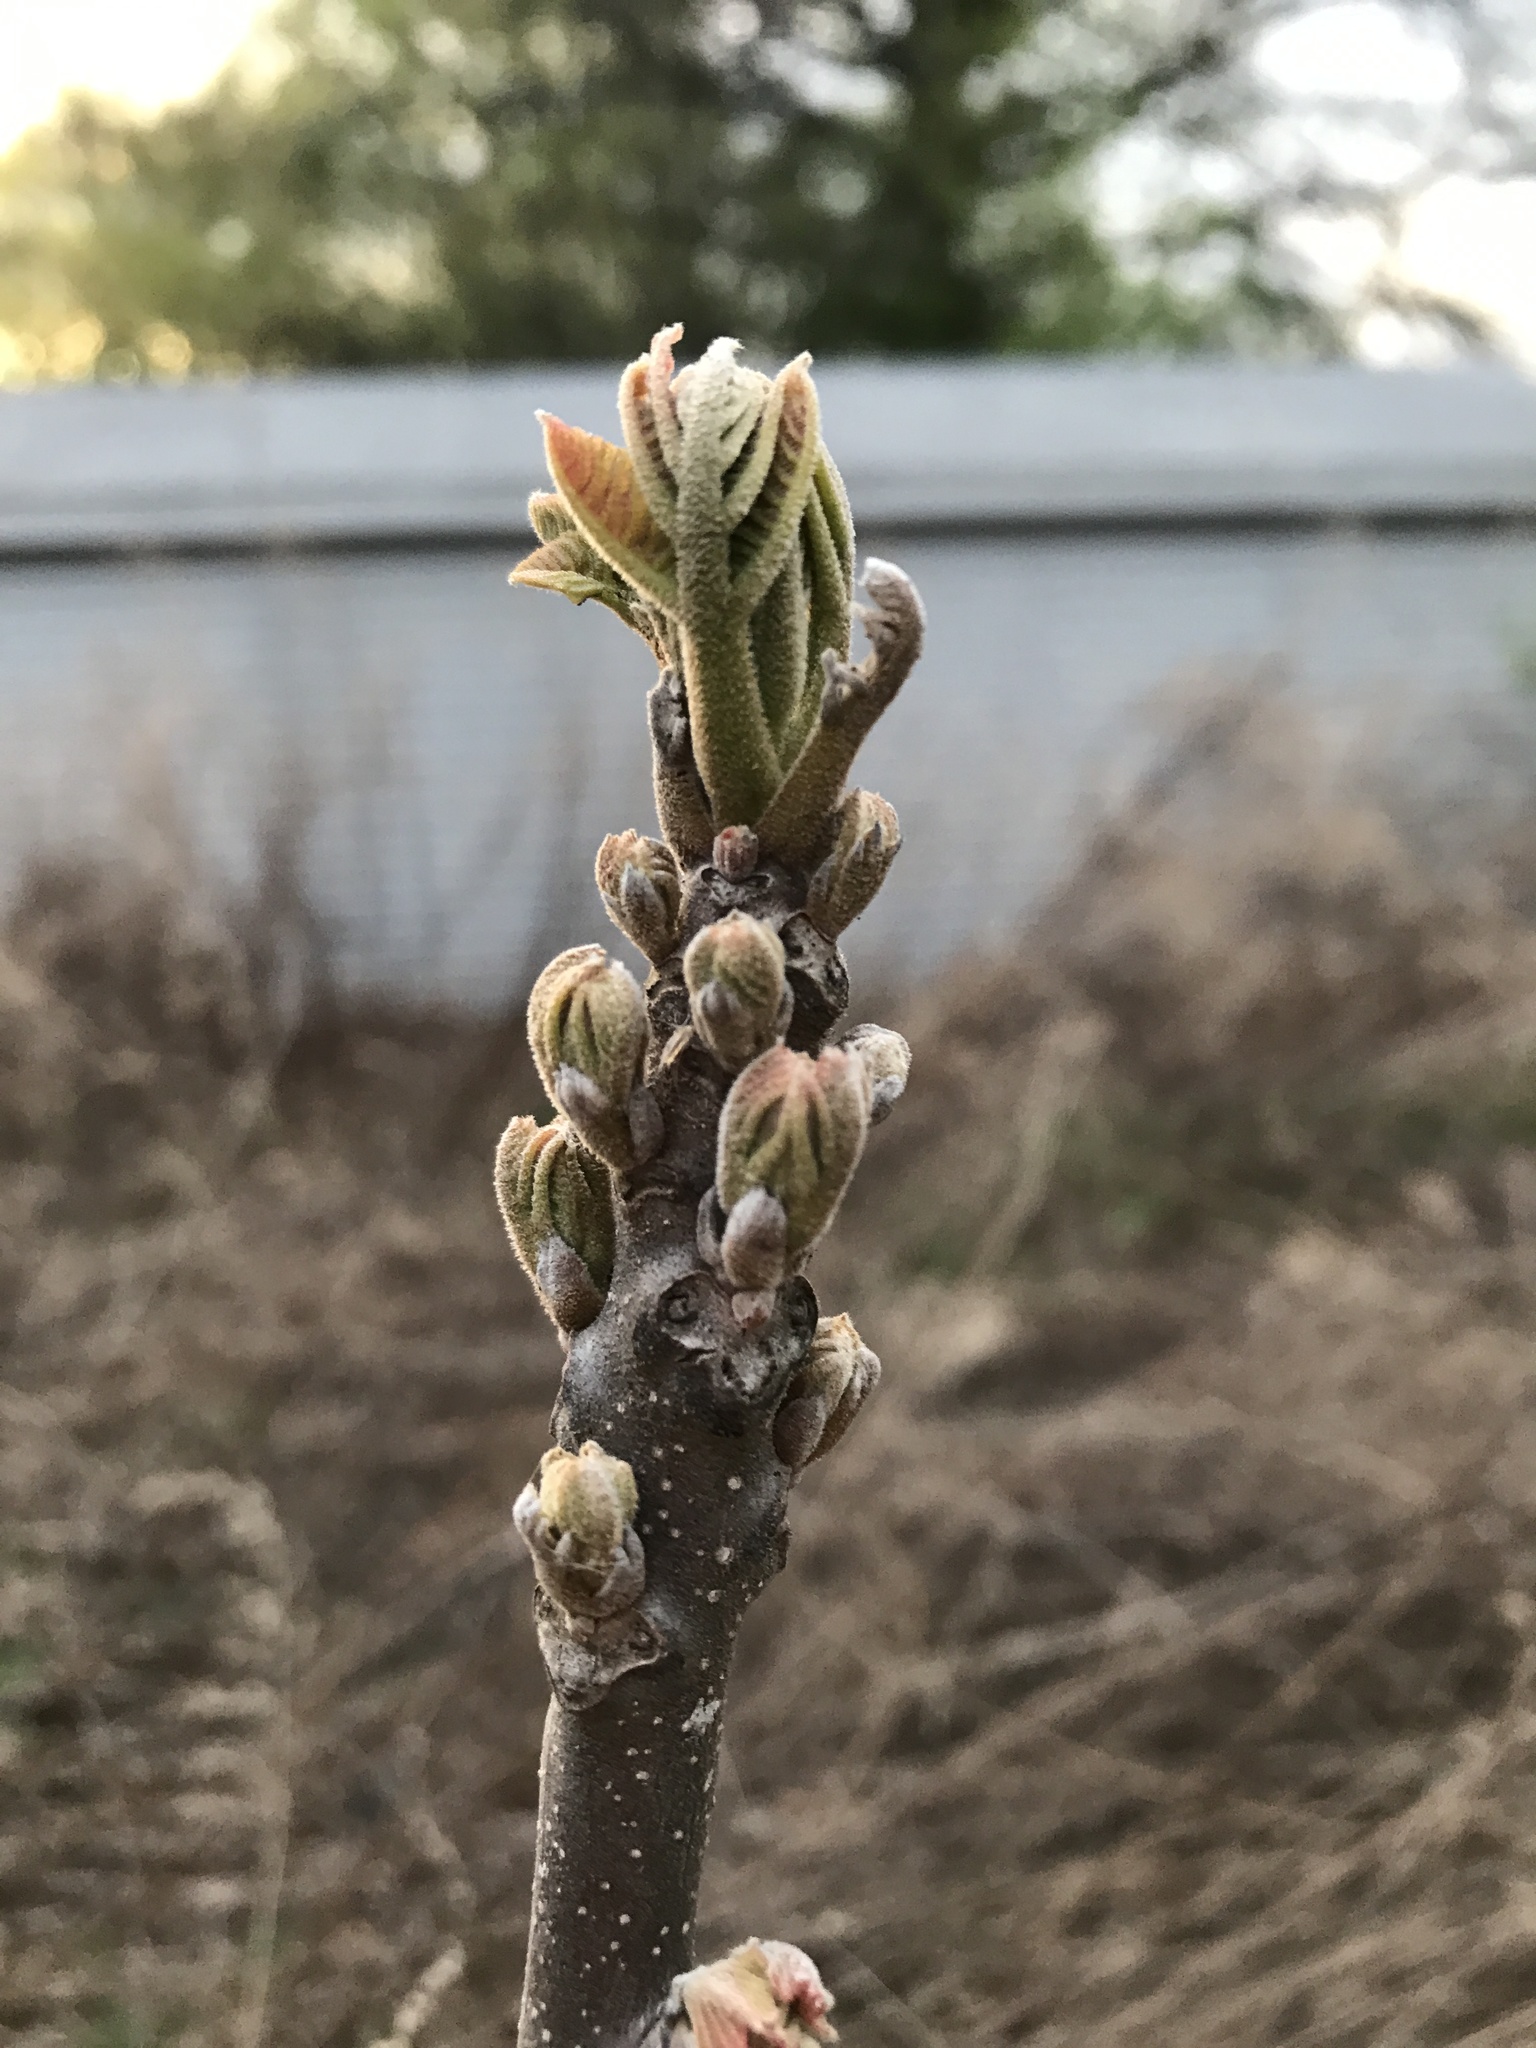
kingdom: Plantae
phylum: Tracheophyta
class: Magnoliopsida
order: Fagales
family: Juglandaceae
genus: Juglans
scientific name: Juglans nigra
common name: Black walnut
